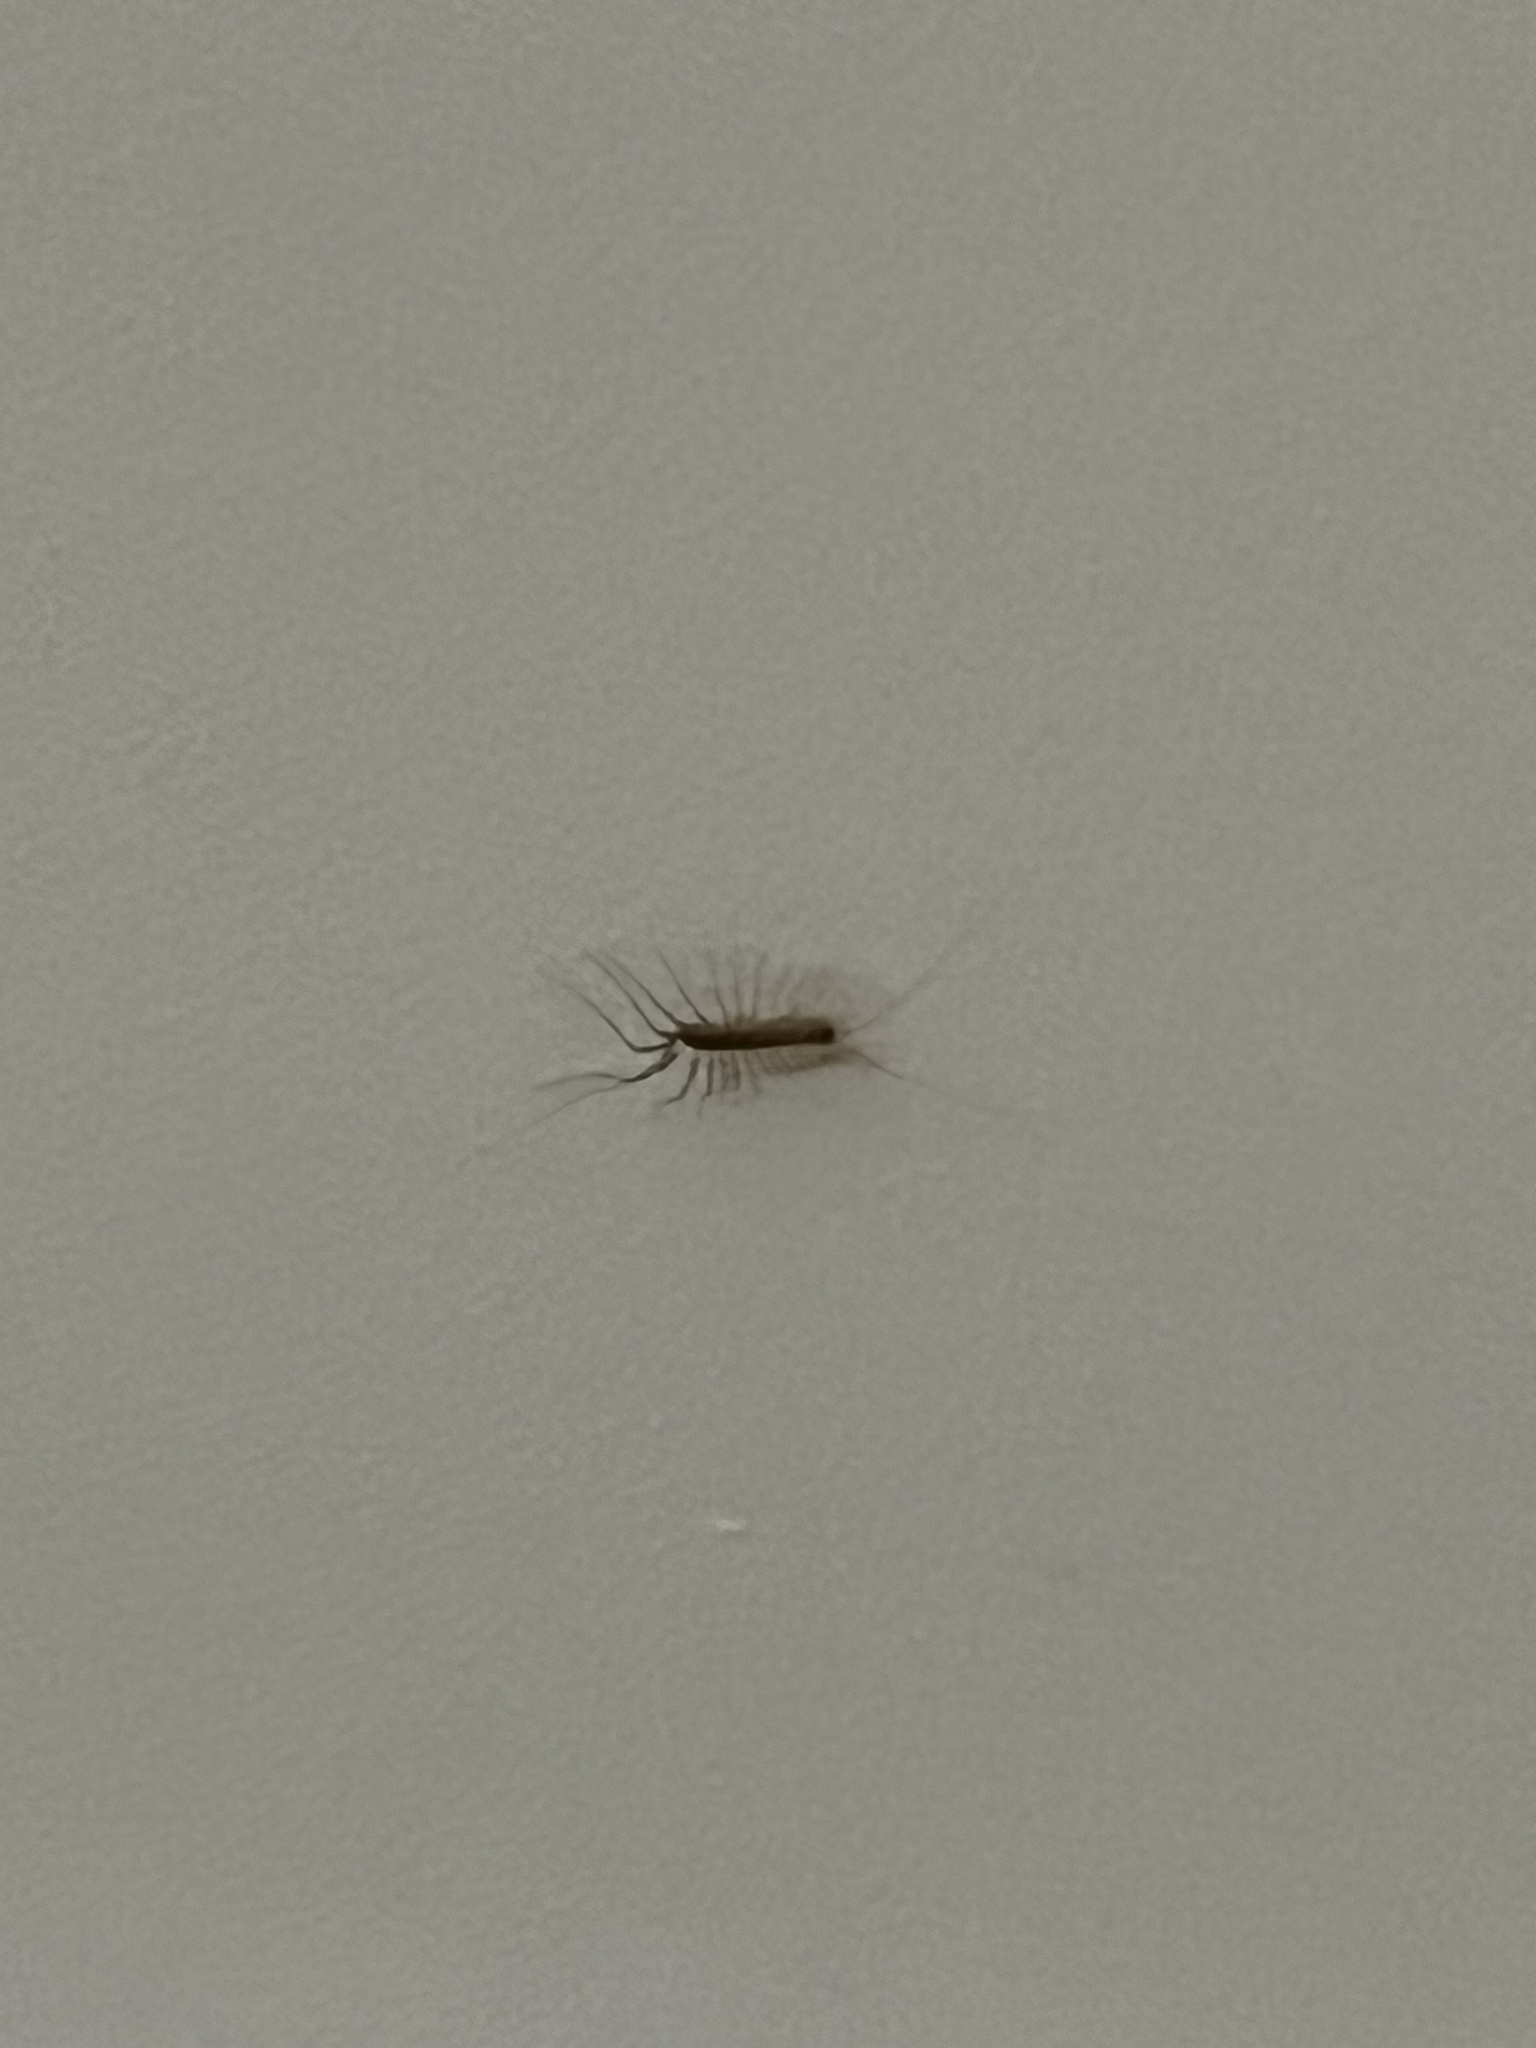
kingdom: Animalia
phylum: Arthropoda
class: Chilopoda
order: Scutigeromorpha
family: Scutigeridae
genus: Scutigera
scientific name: Scutigera coleoptrata
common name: House centipede
